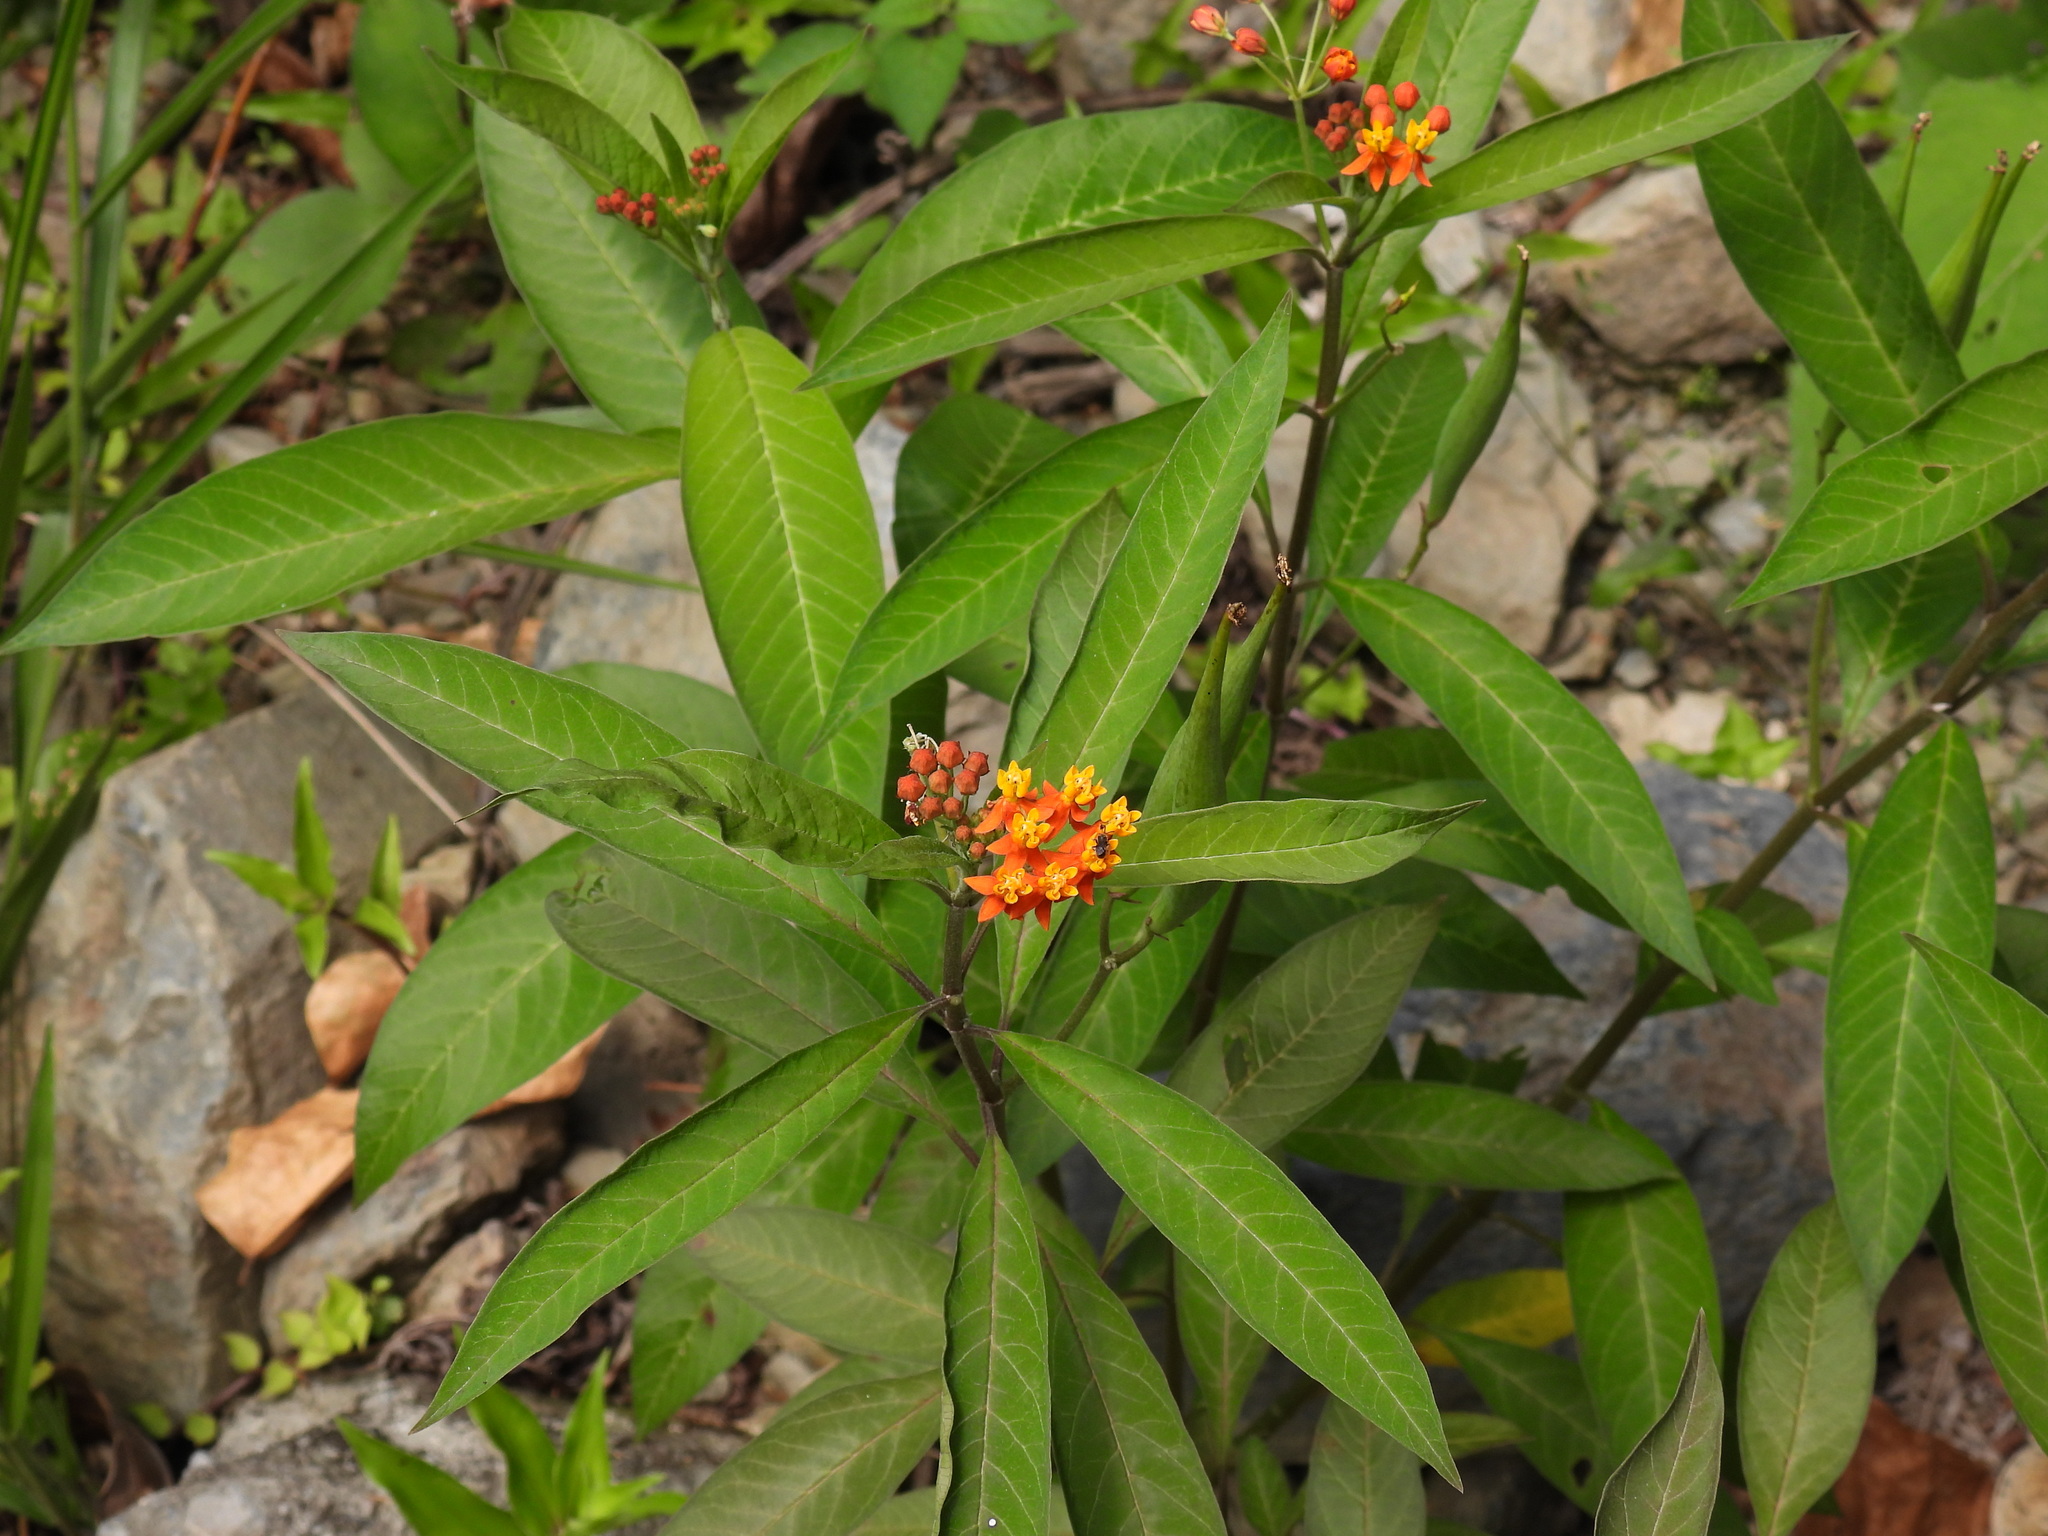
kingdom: Plantae
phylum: Tracheophyta
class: Magnoliopsida
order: Gentianales
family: Apocynaceae
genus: Asclepias
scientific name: Asclepias curassavica
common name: Bloodflower
